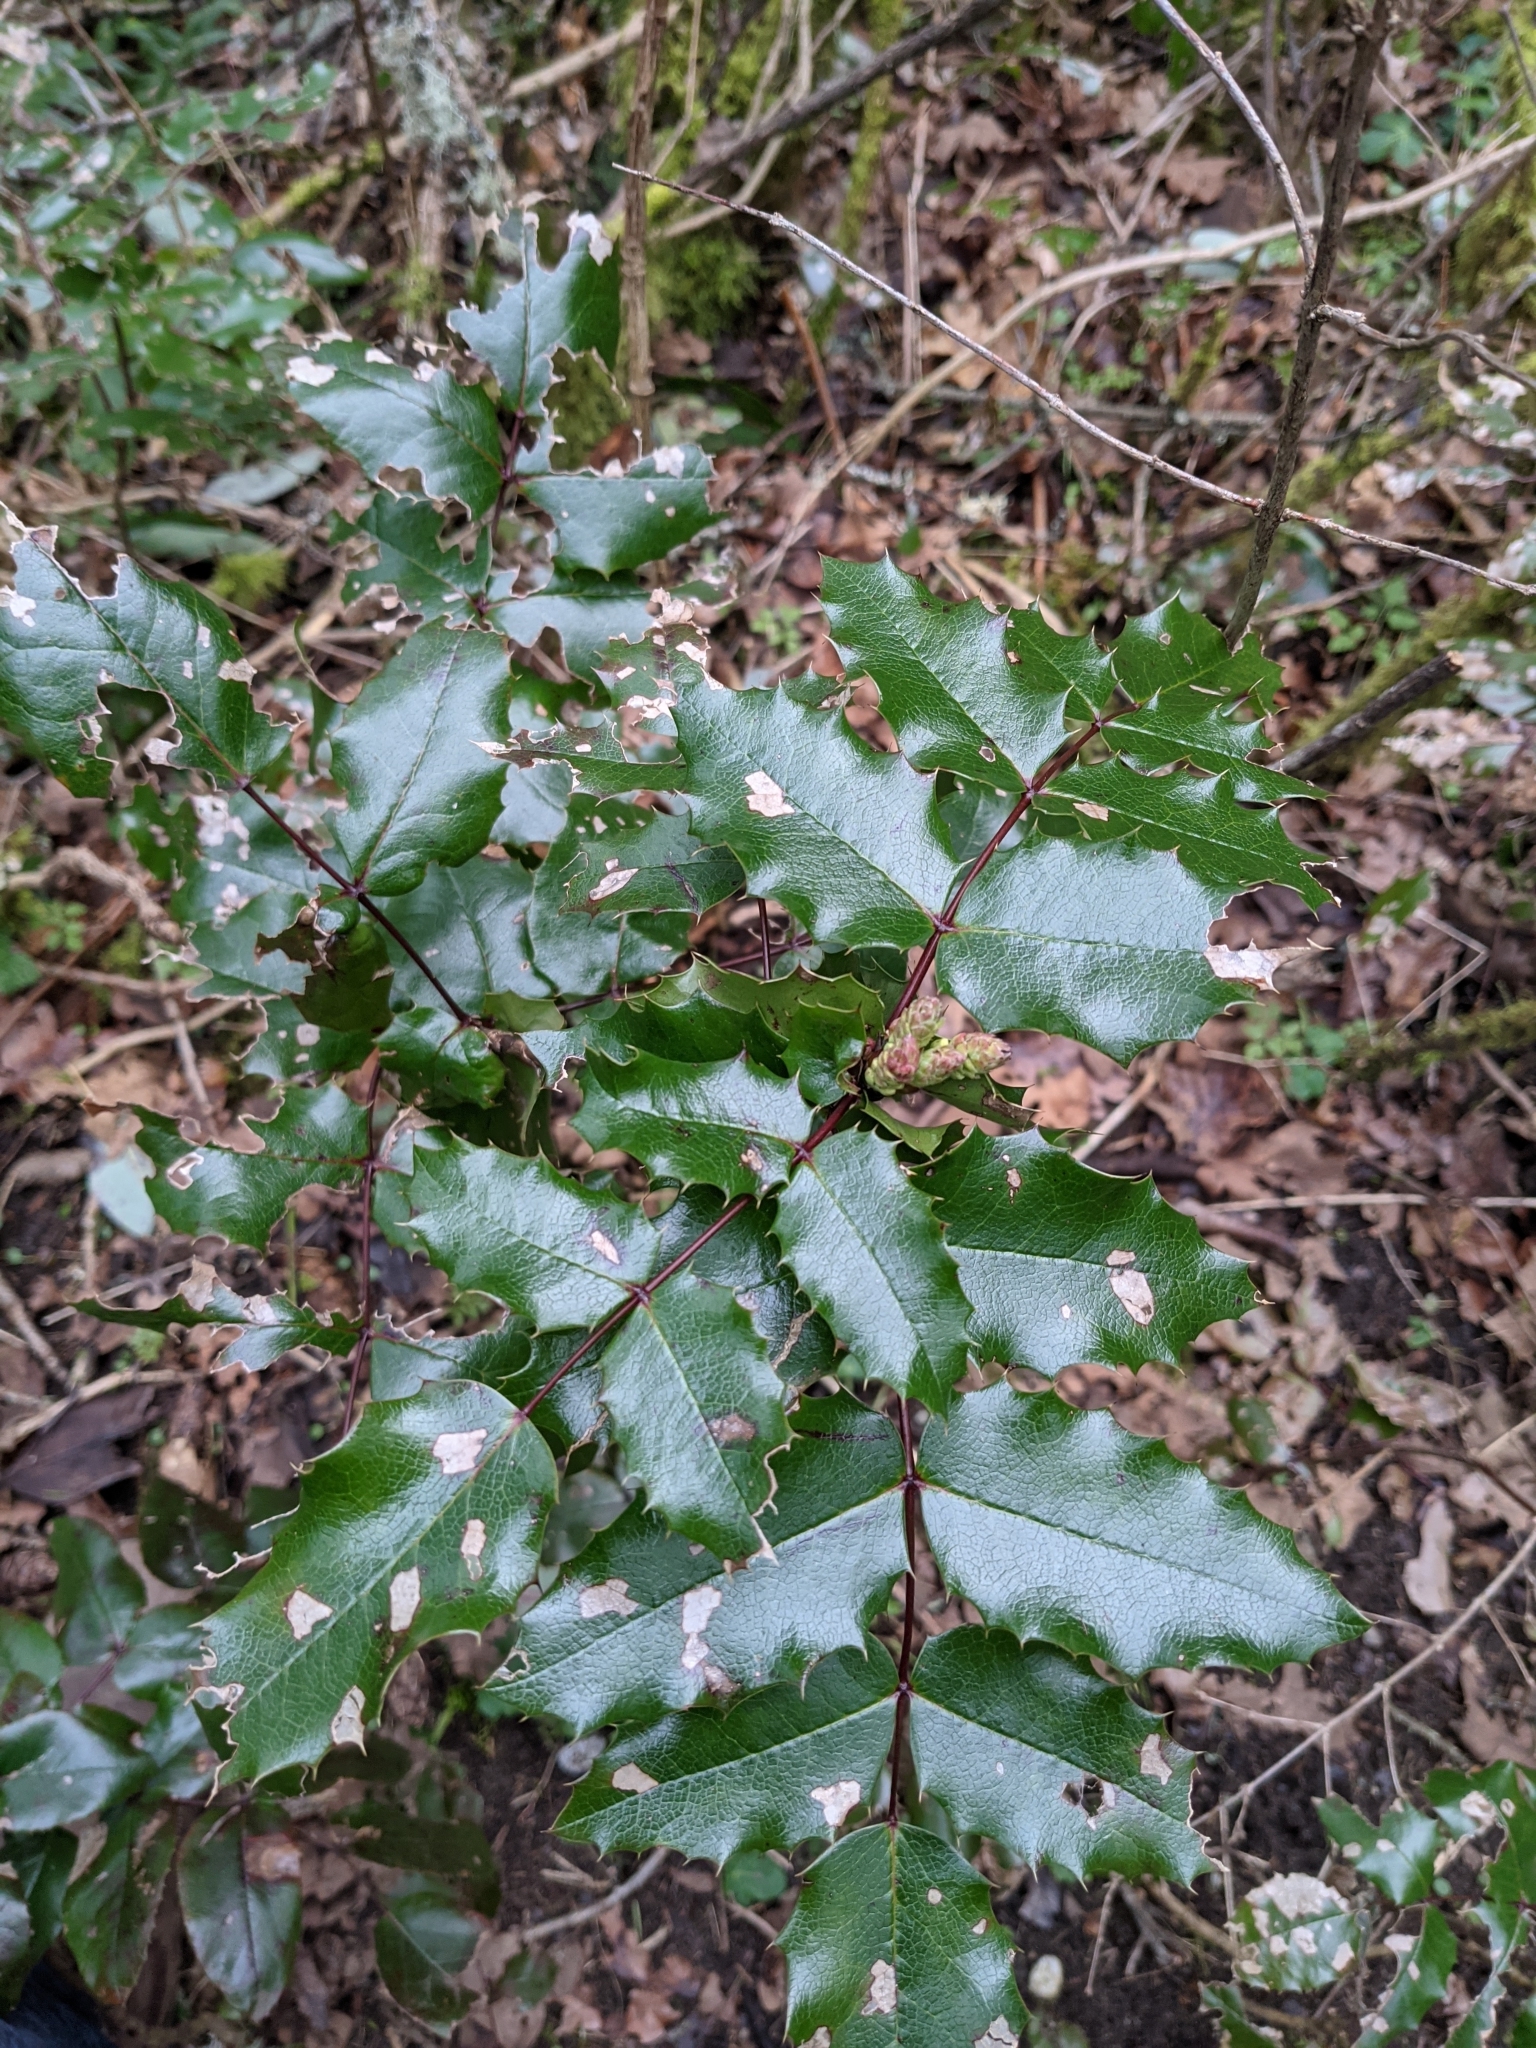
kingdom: Plantae
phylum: Tracheophyta
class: Magnoliopsida
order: Ranunculales
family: Berberidaceae
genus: Mahonia
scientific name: Mahonia aquifolium
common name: Oregon-grape
